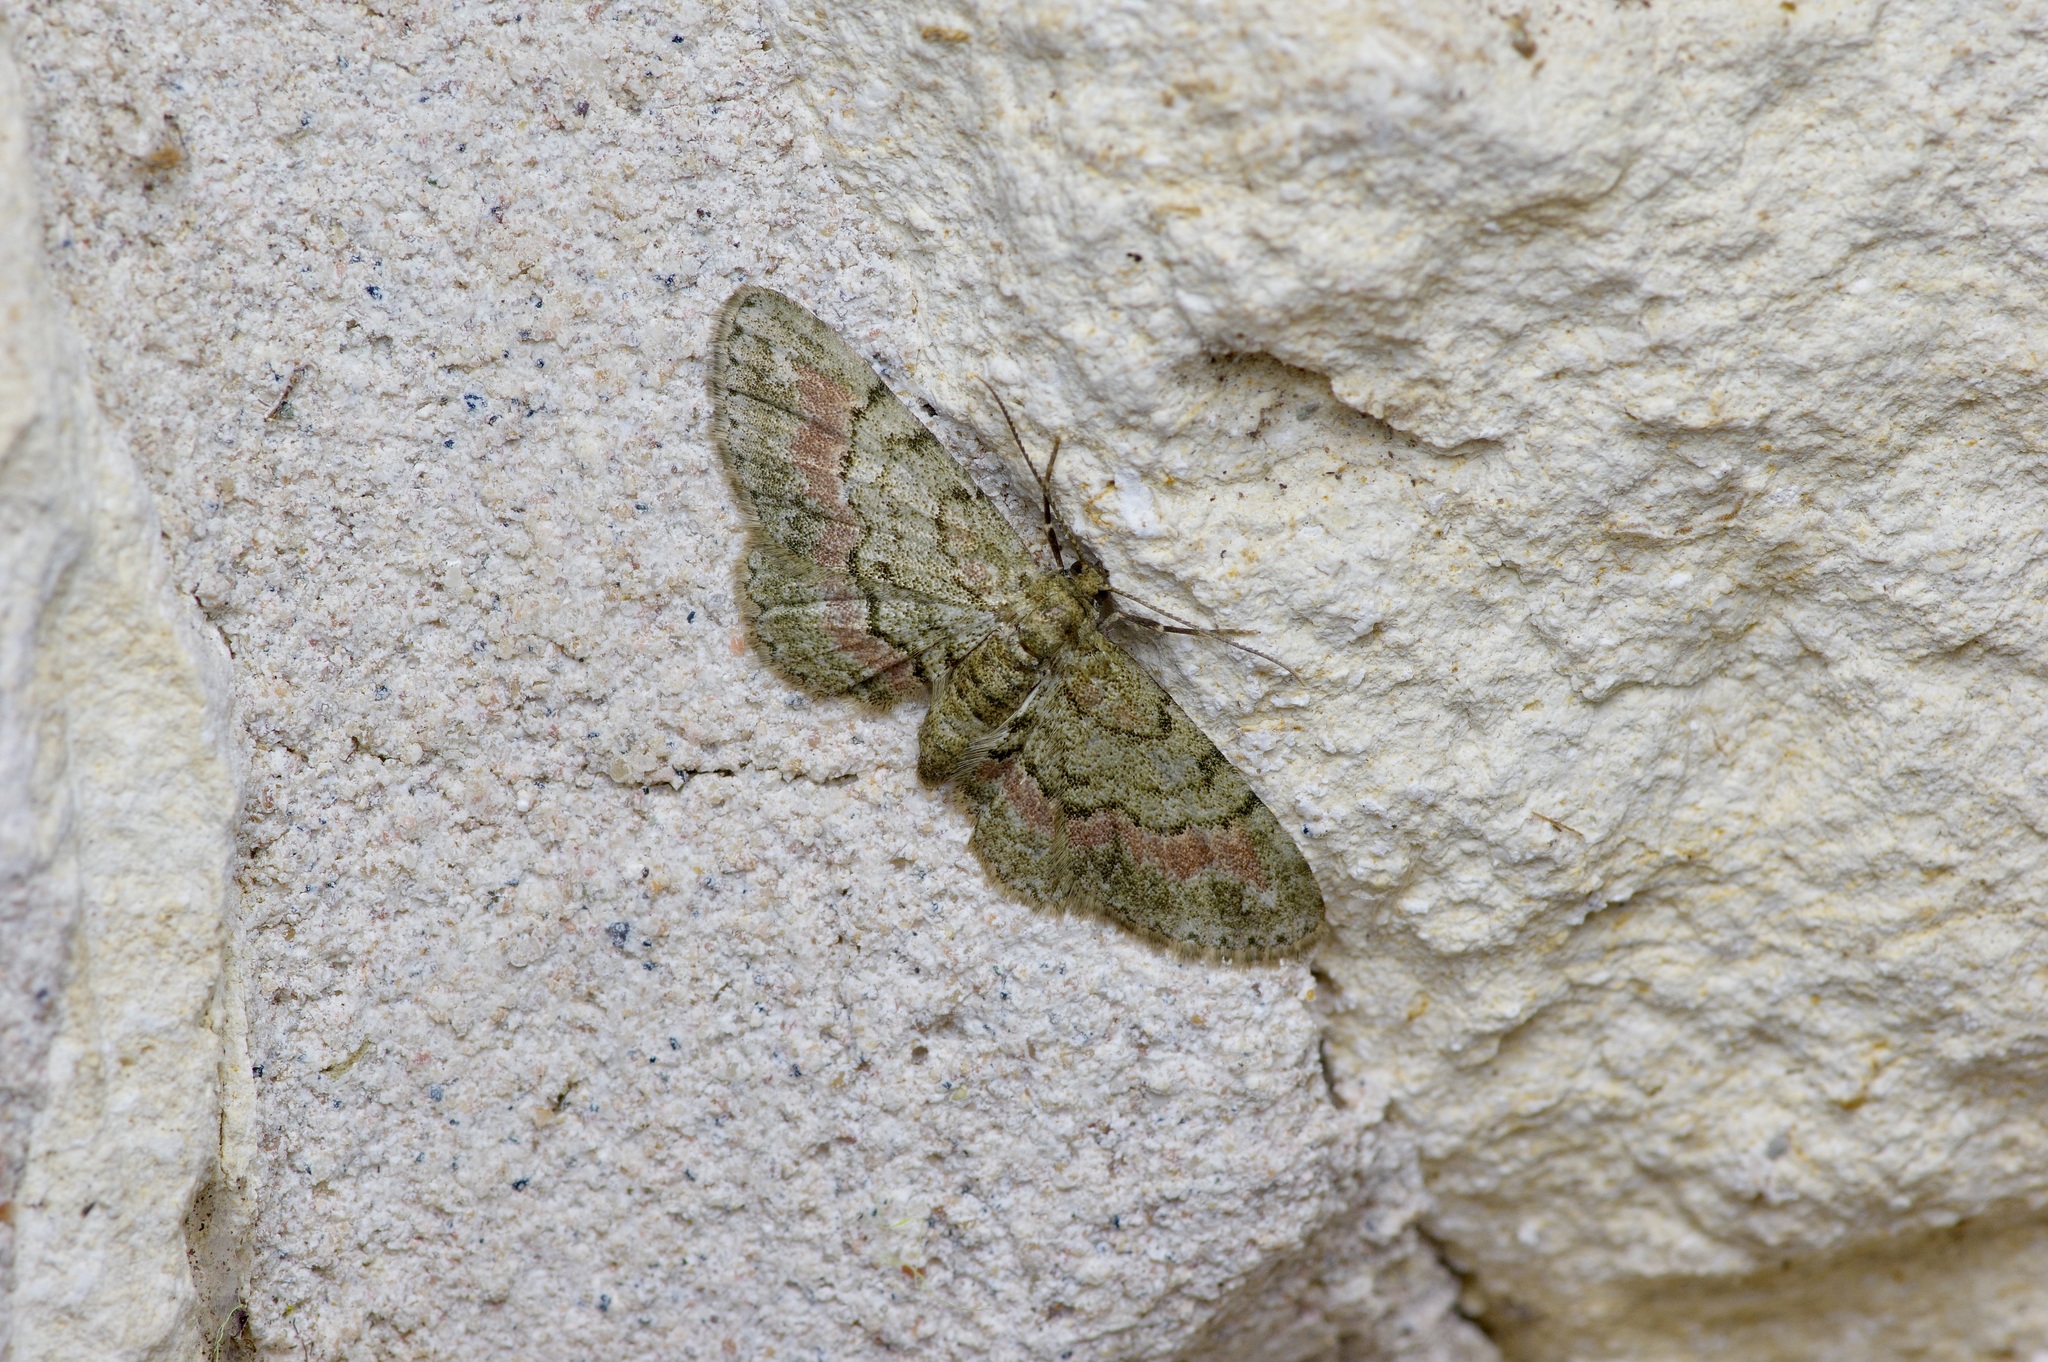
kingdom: Animalia
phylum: Arthropoda
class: Insecta
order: Lepidoptera
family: Geometridae
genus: Glenoides
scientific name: Glenoides texanaria
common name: Texas gray
